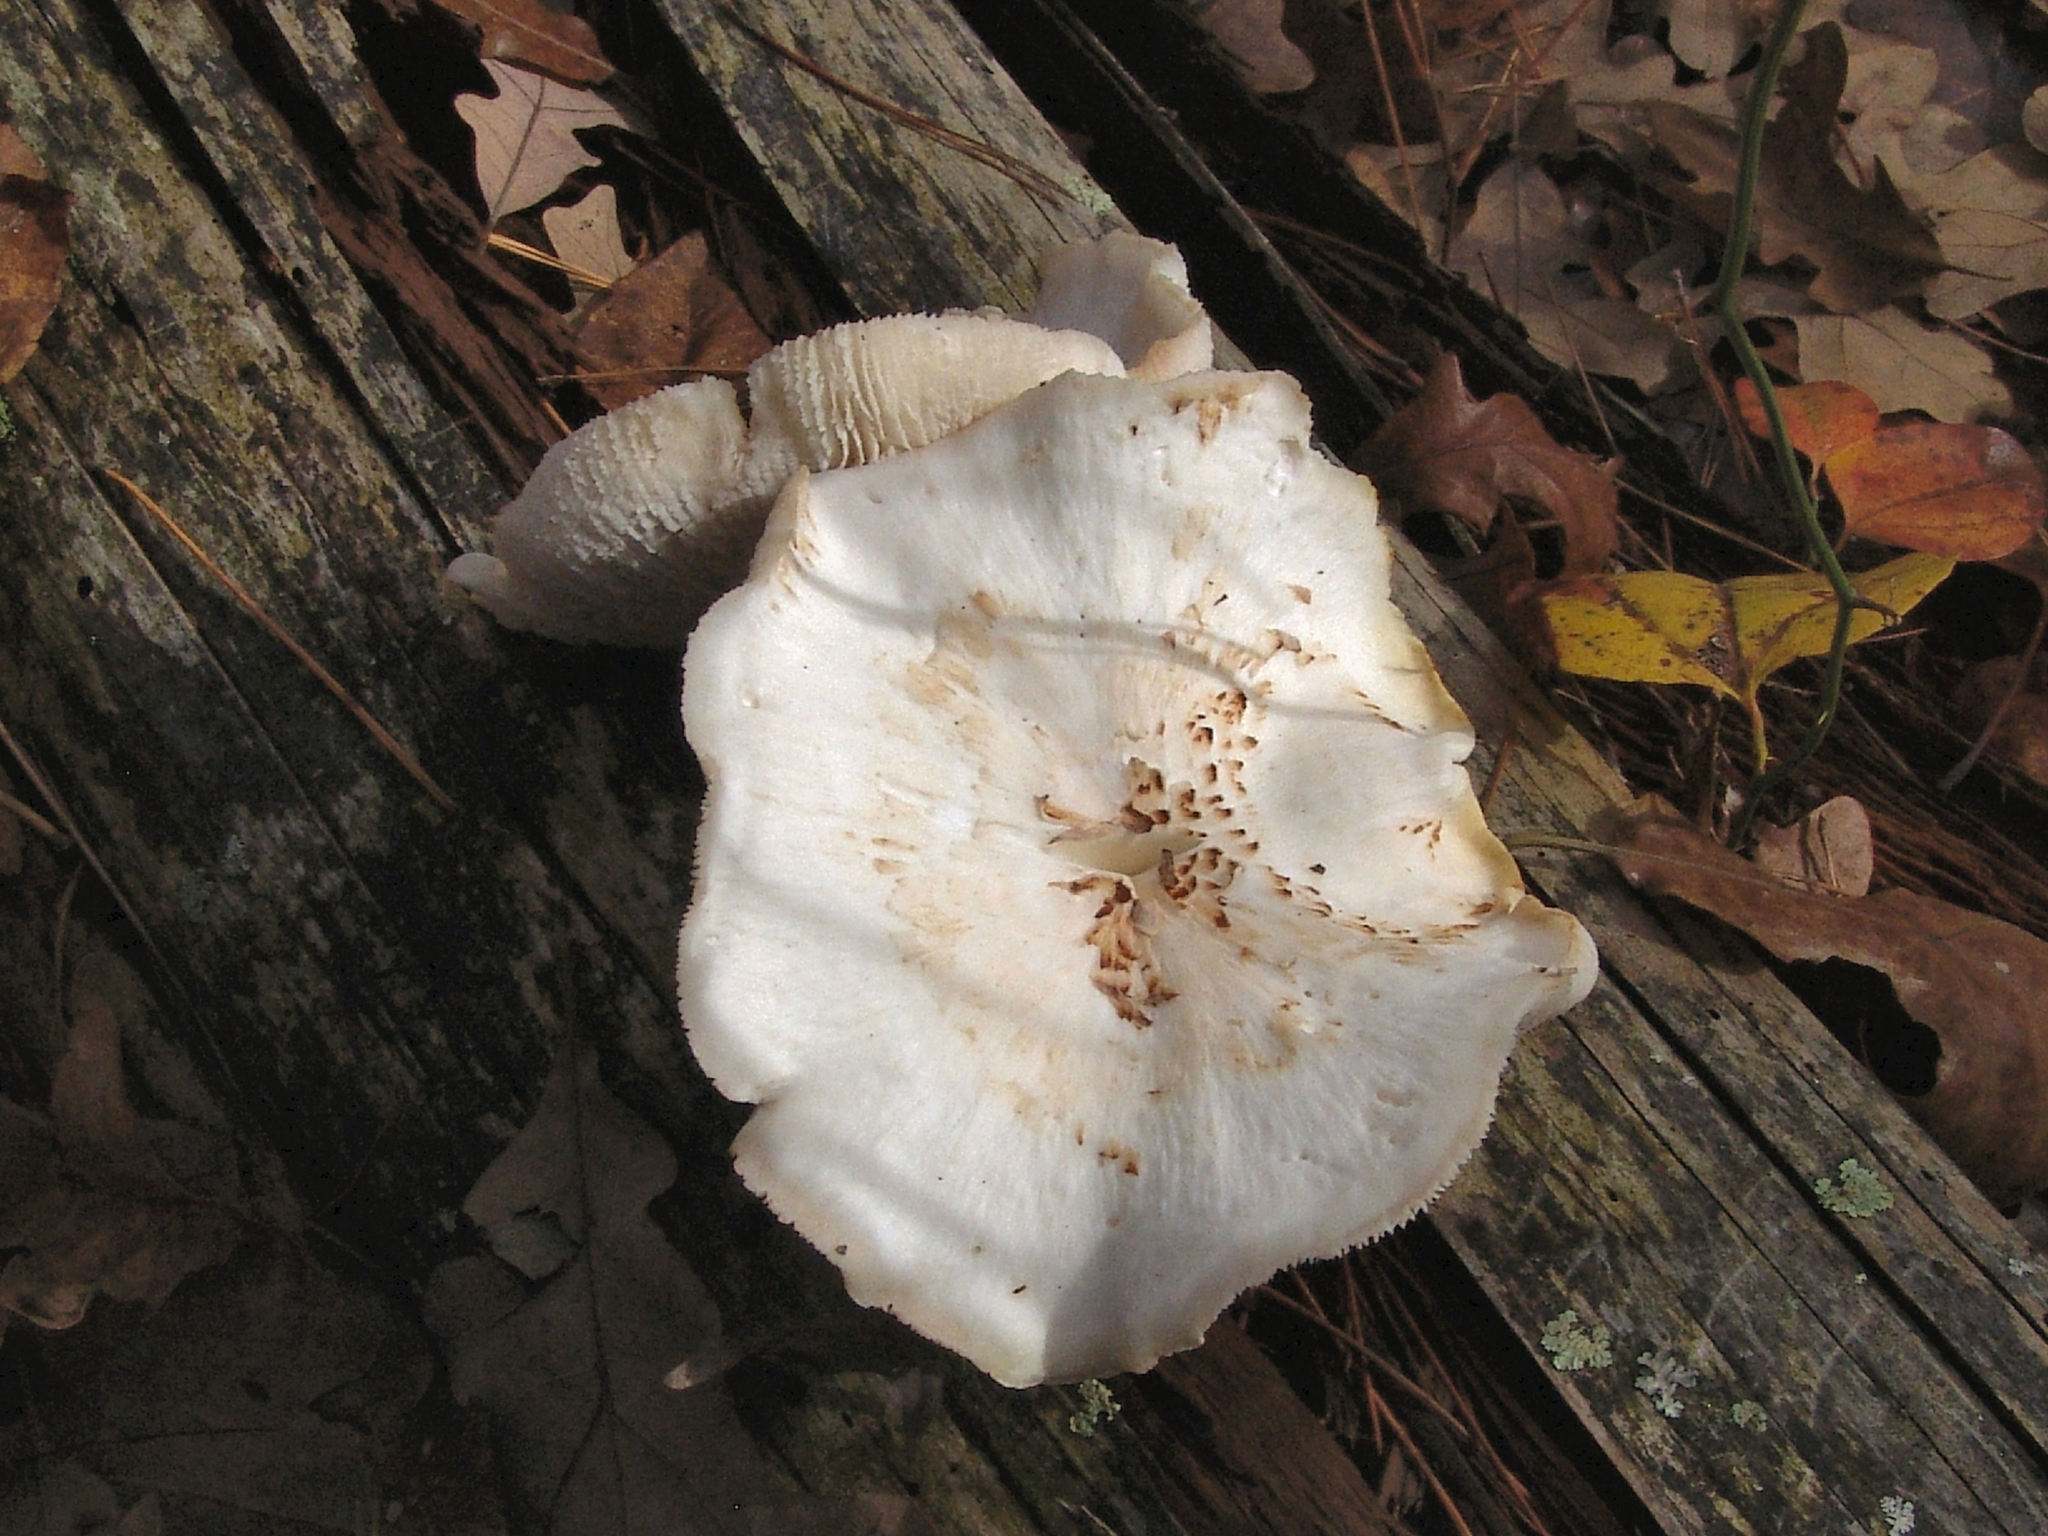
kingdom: Fungi
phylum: Basidiomycota
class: Agaricomycetes
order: Gloeophyllales
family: Gloeophyllaceae
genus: Neolentinus
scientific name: Neolentinus lepideus
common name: Scaly sawgill
